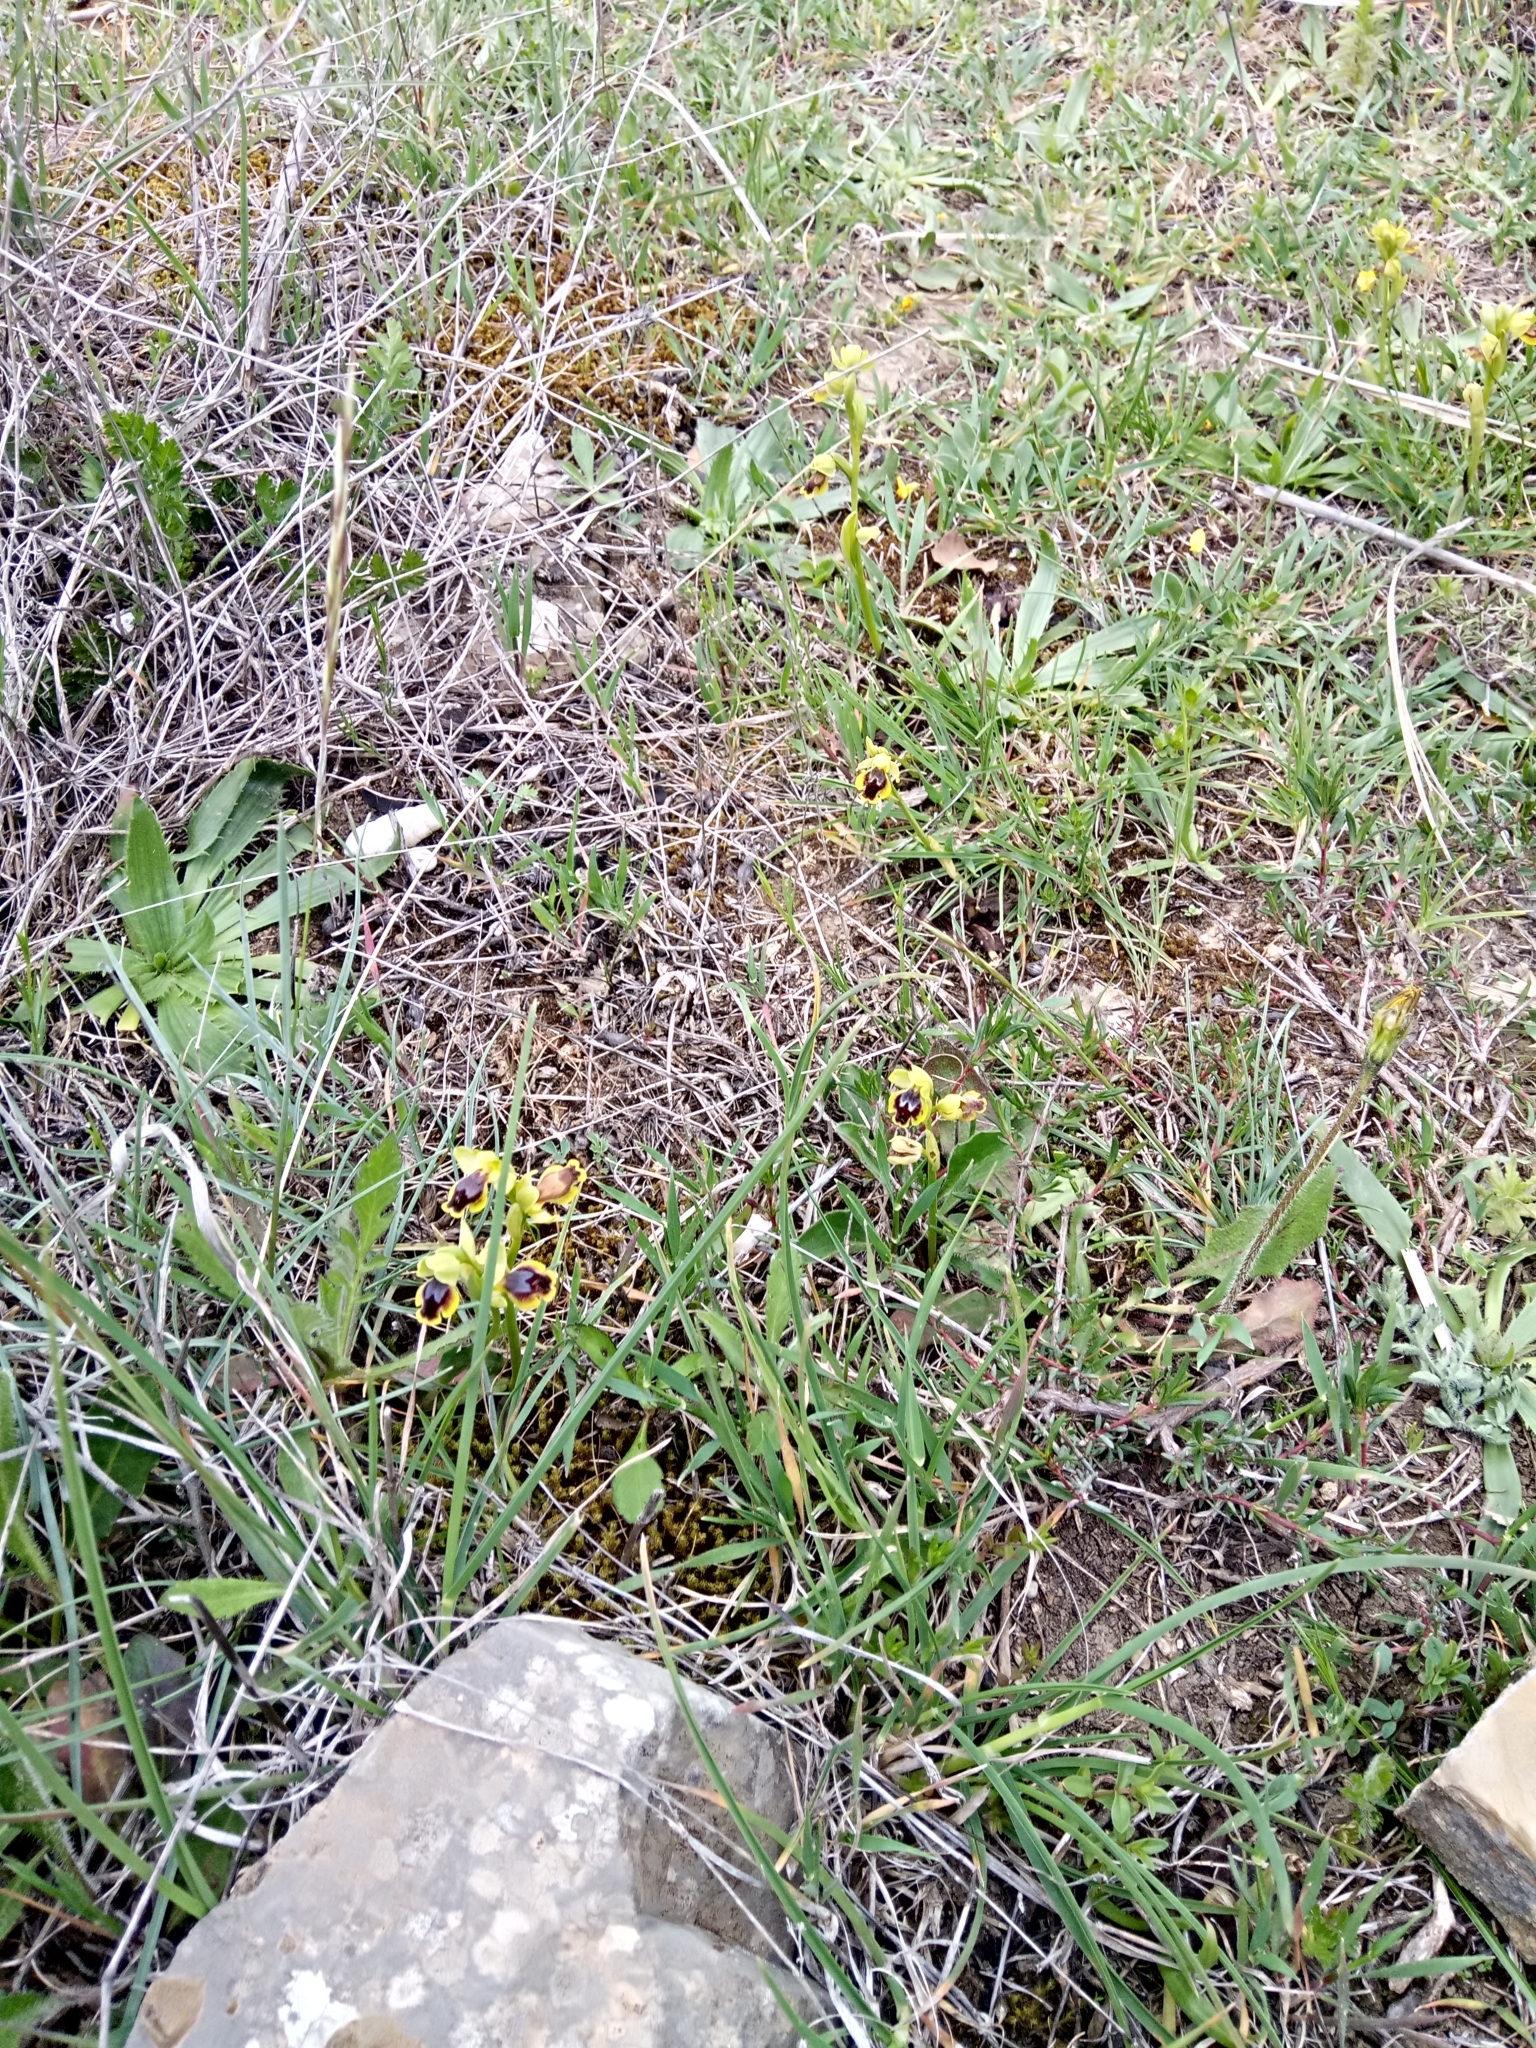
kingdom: Plantae
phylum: Tracheophyta
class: Liliopsida
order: Asparagales
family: Orchidaceae
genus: Ophrys
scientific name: Ophrys battandieri
